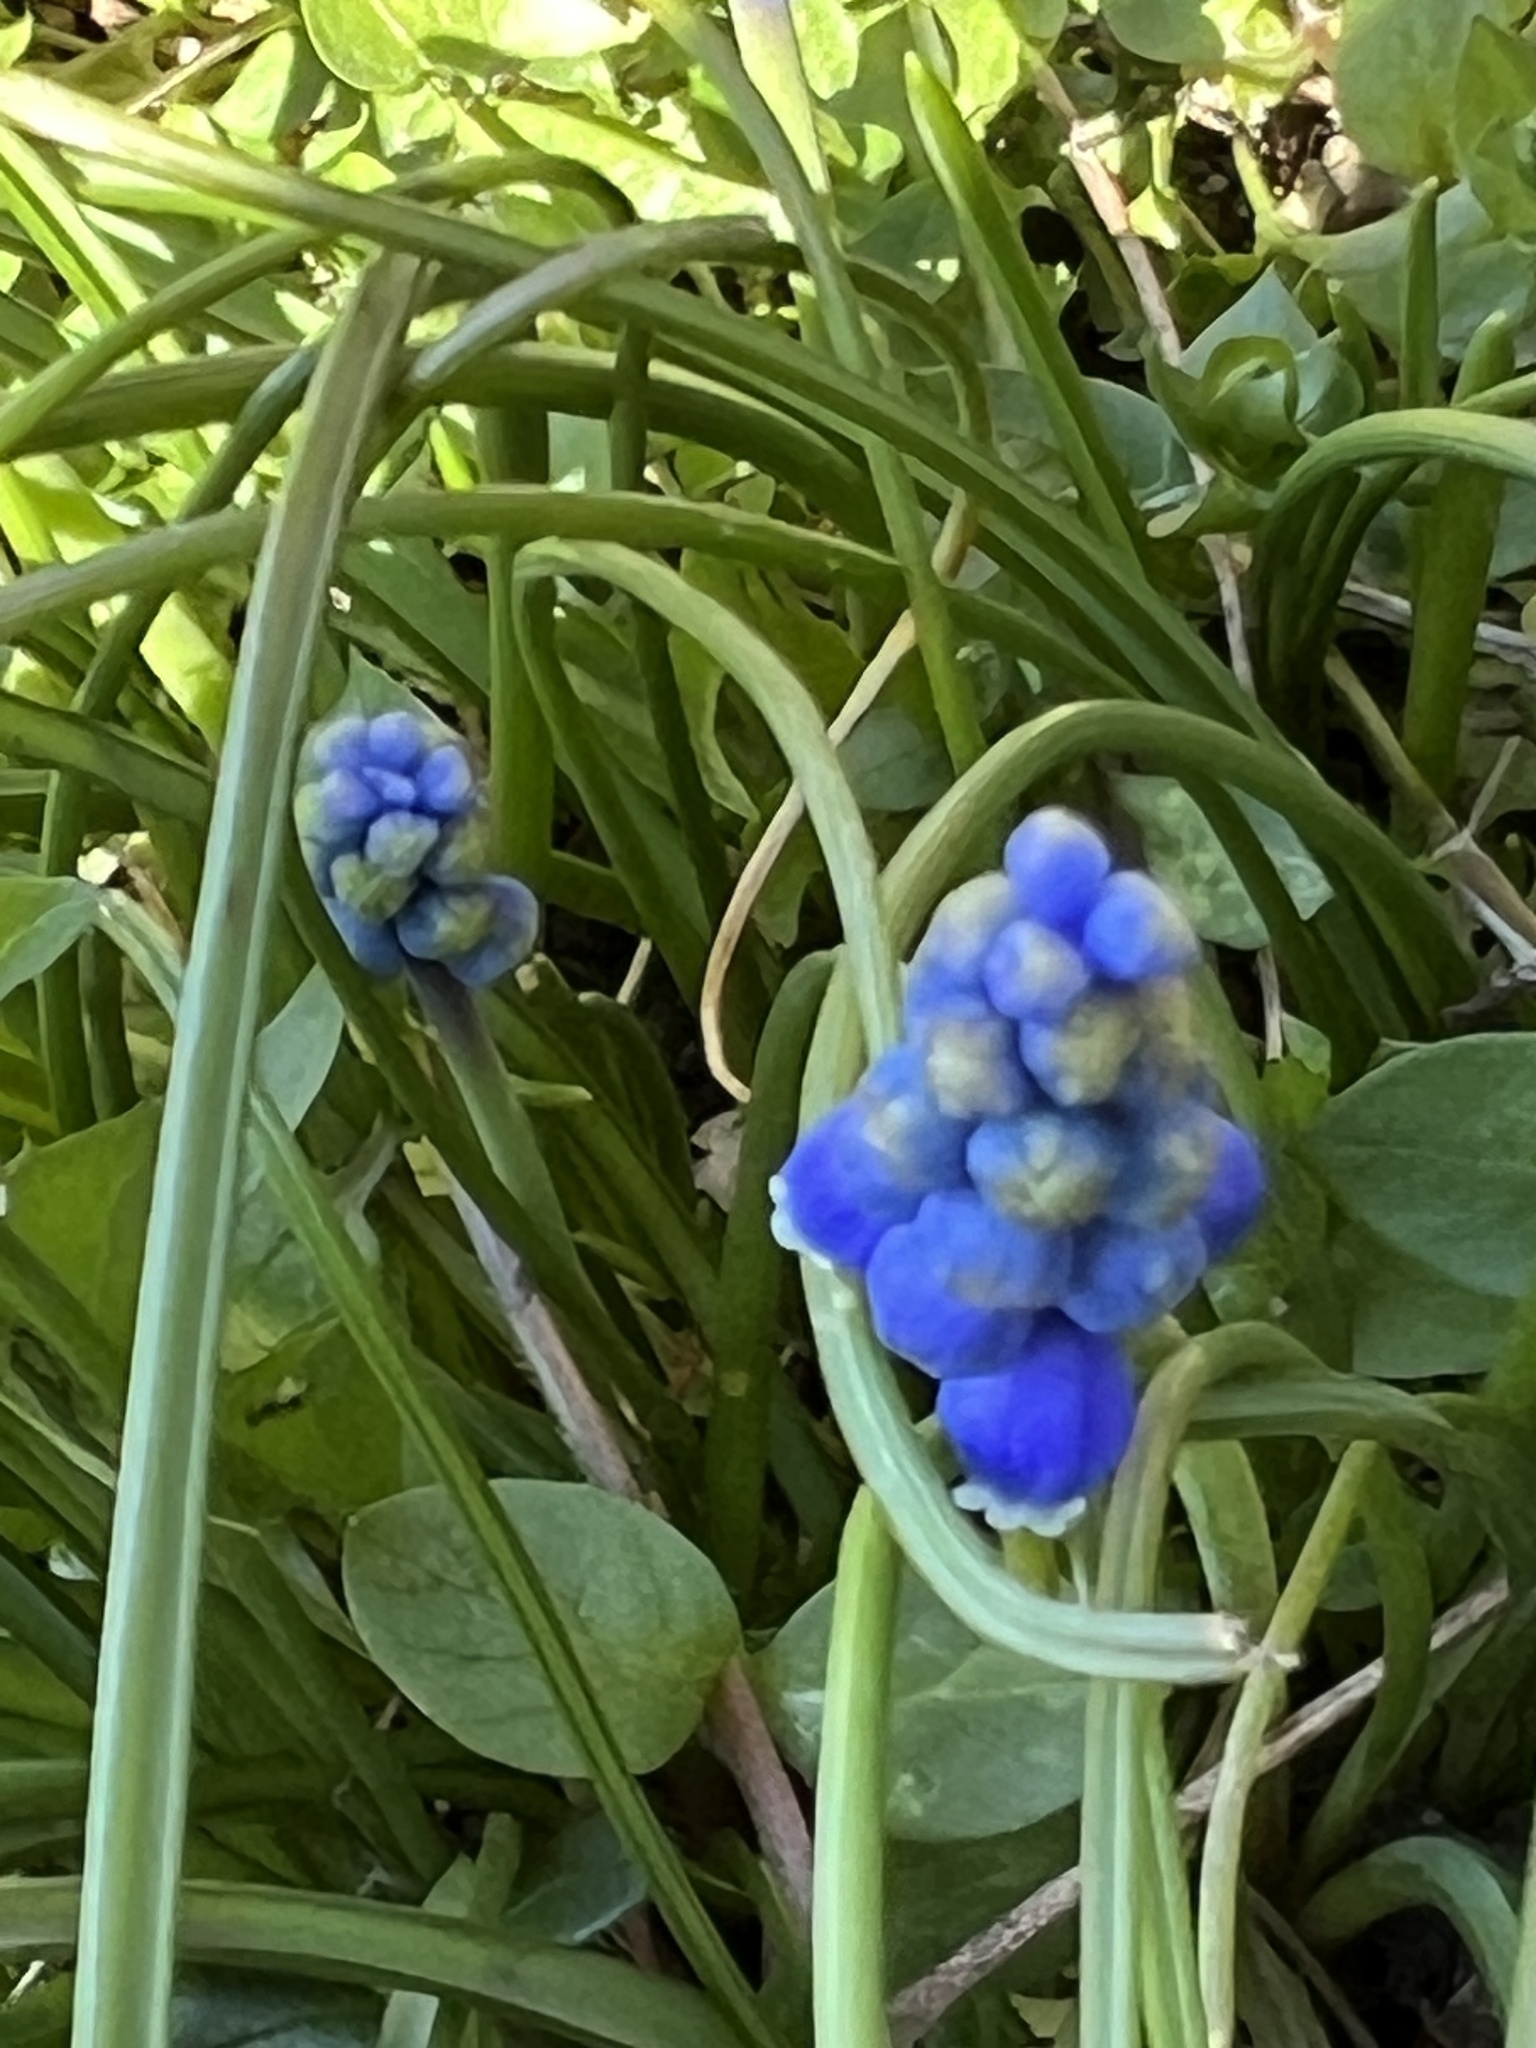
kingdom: Plantae
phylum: Tracheophyta
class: Liliopsida
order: Asparagales
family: Asparagaceae
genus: Muscari
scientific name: Muscari armeniacum
